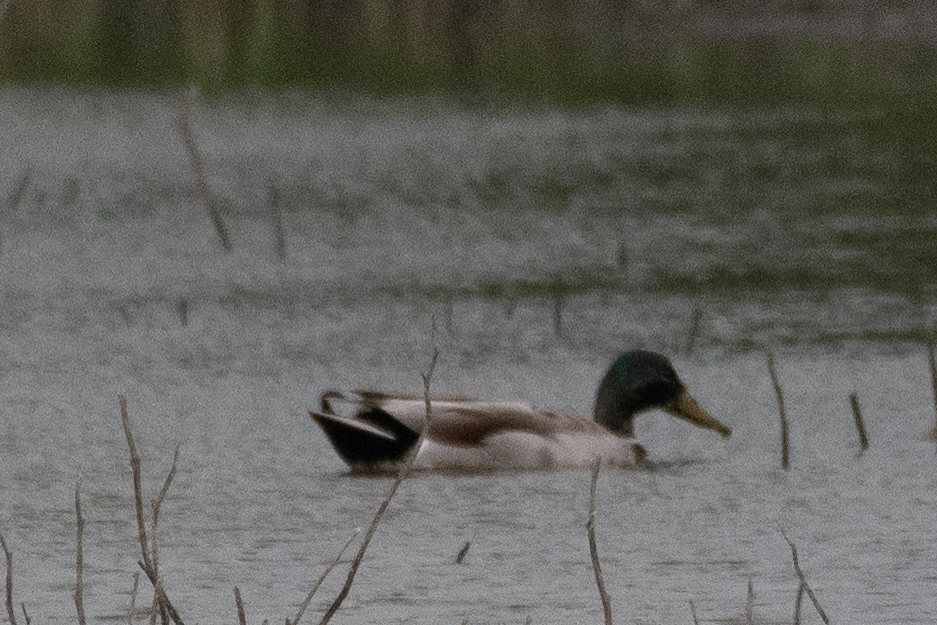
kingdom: Animalia
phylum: Chordata
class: Aves
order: Anseriformes
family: Anatidae
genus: Anas
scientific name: Anas platyrhynchos
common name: Mallard
